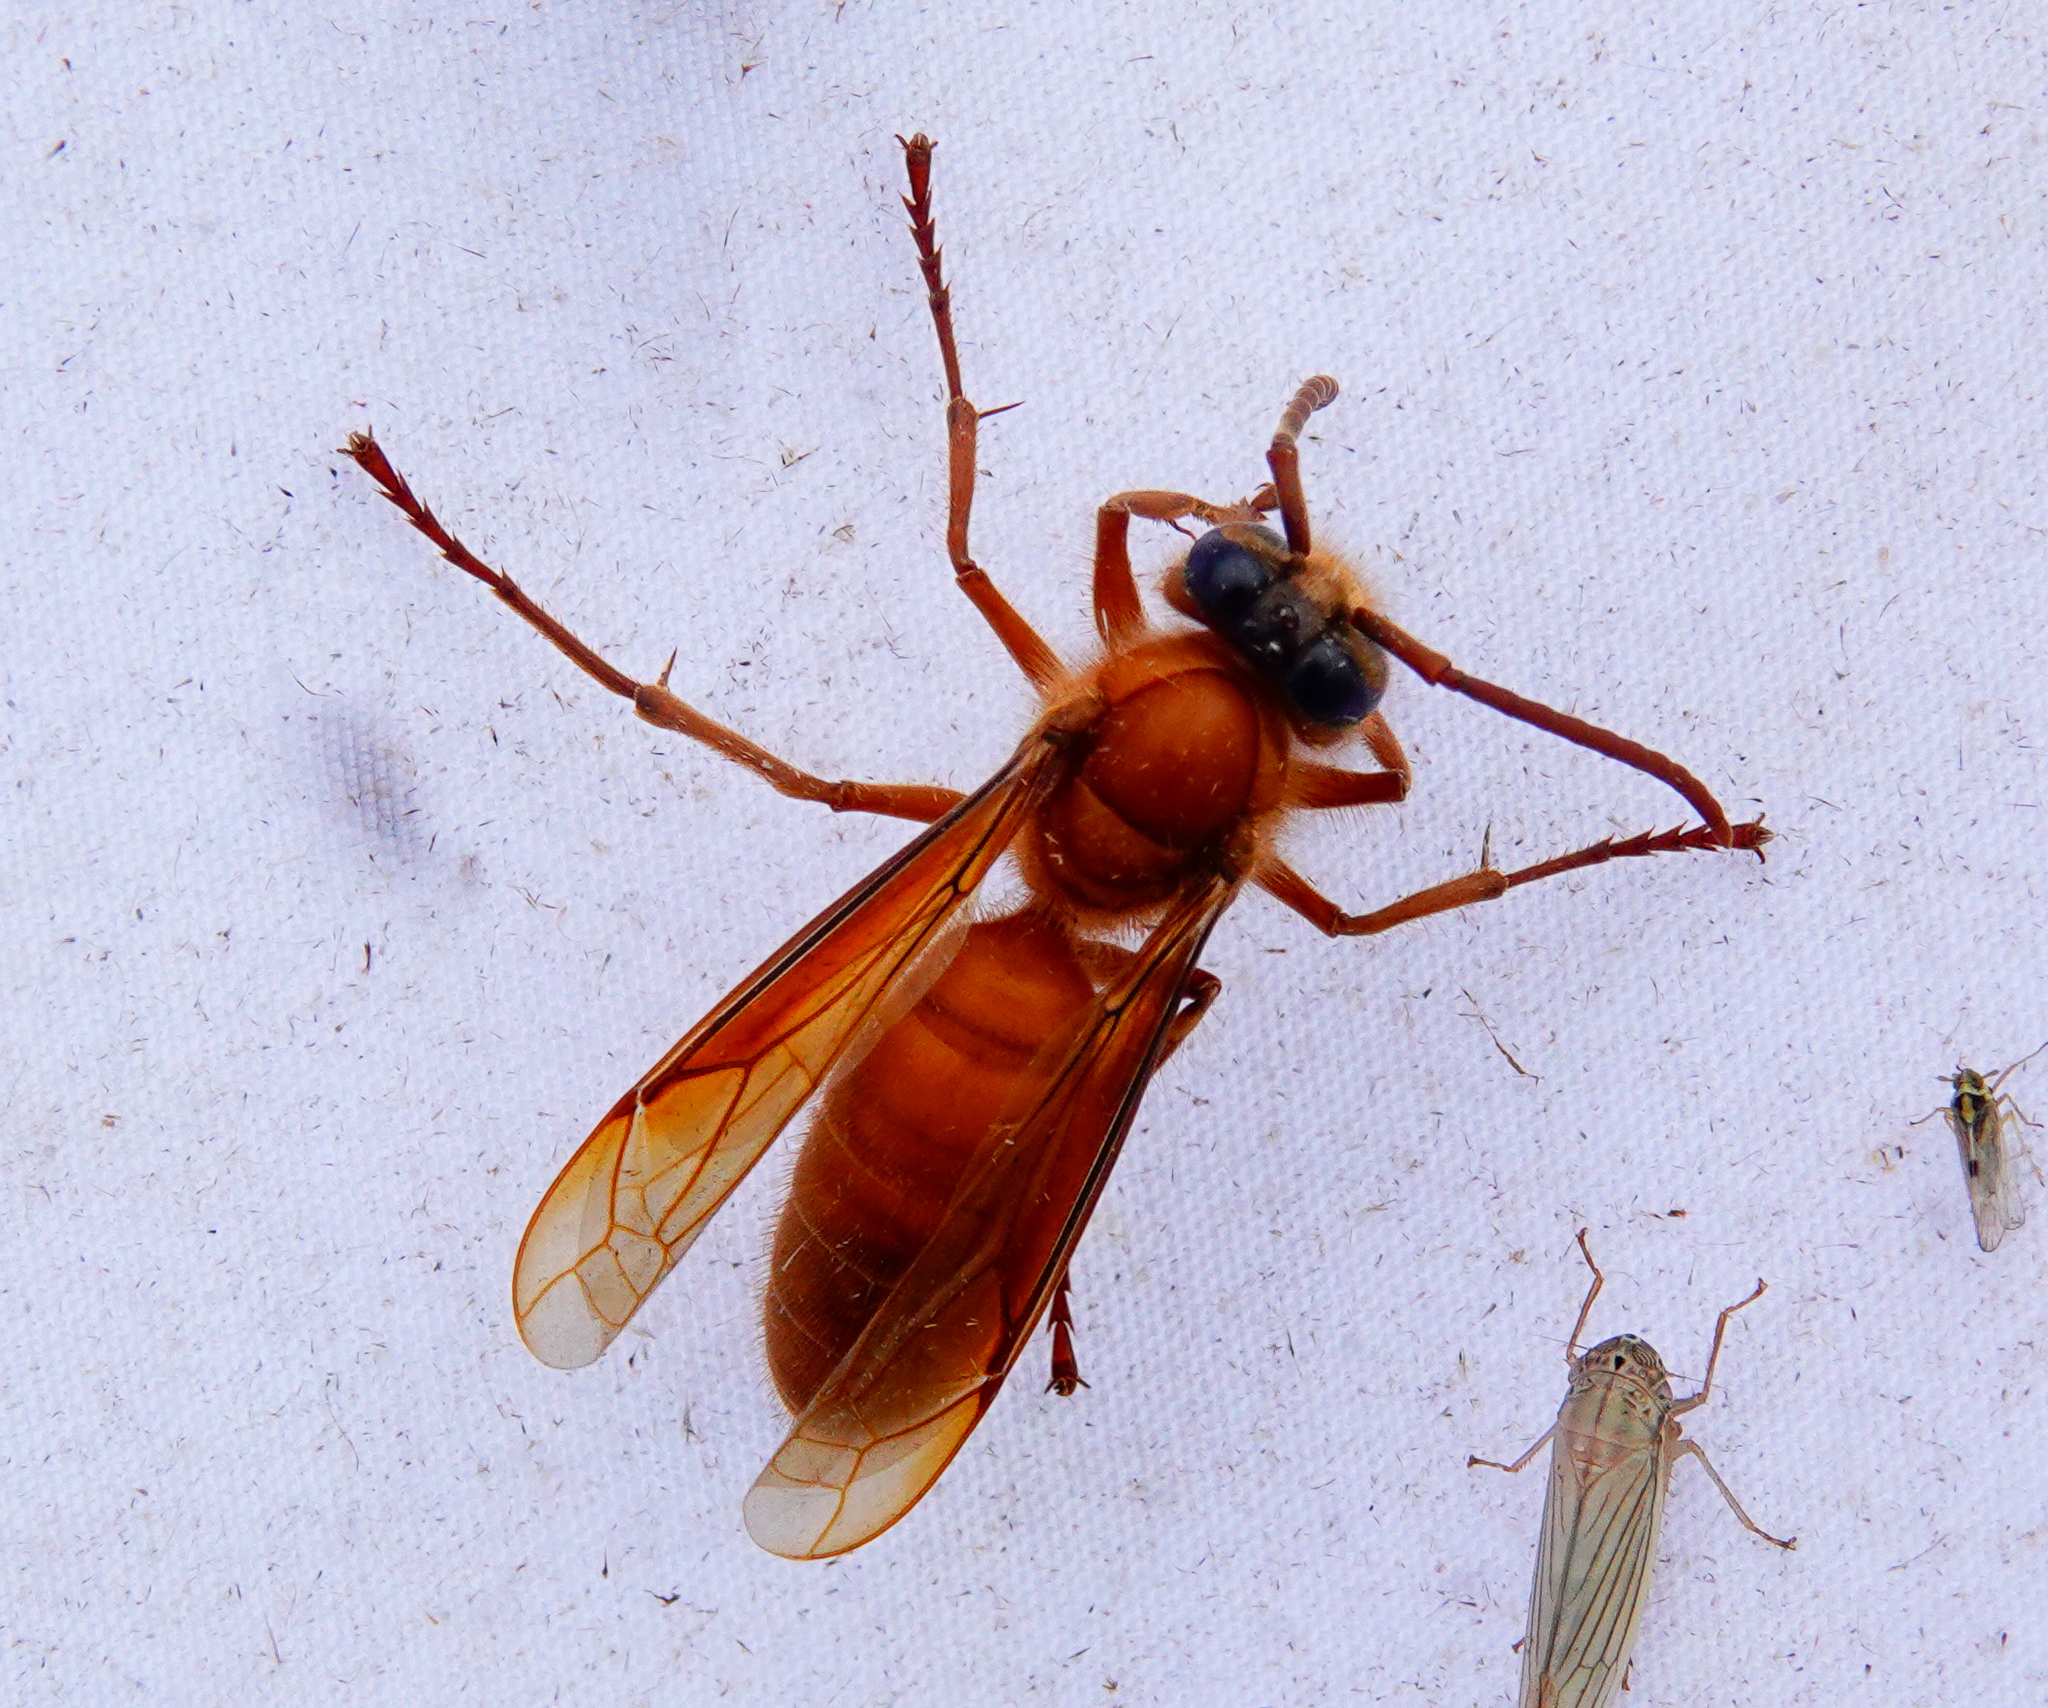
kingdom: Animalia
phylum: Arthropoda
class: Insecta
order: Hymenoptera
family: Vespidae
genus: Provespa
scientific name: Provespa barthelemyi
